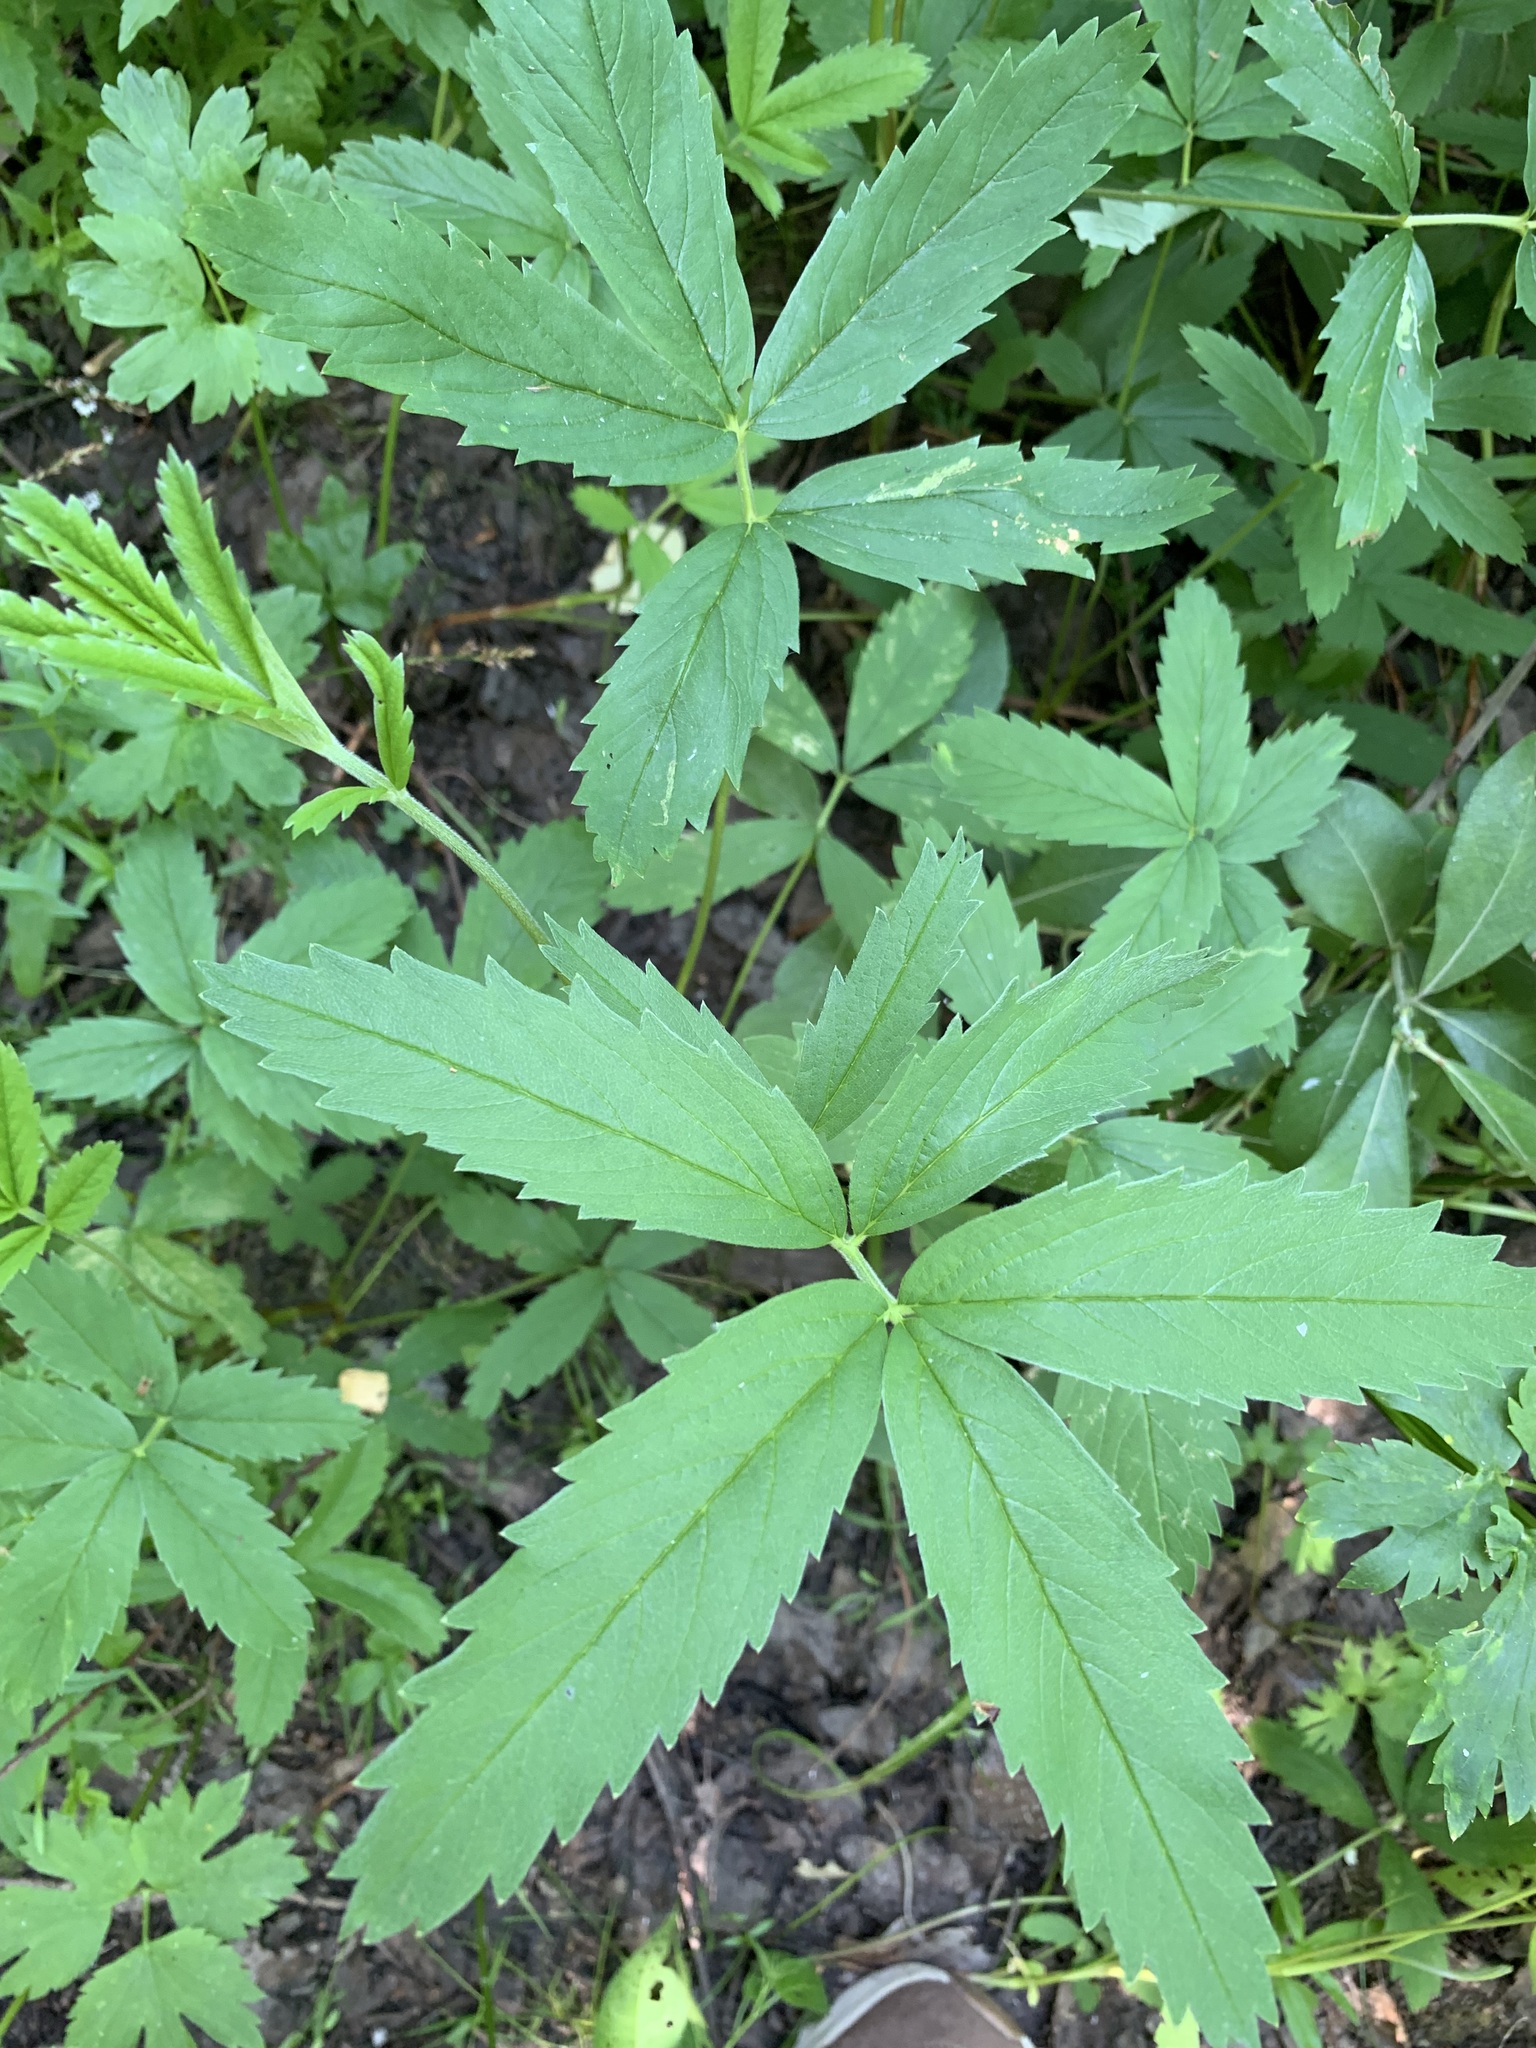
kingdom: Plantae
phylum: Tracheophyta
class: Magnoliopsida
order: Rosales
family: Rosaceae
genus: Comarum
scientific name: Comarum palustre
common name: Marsh cinquefoil
